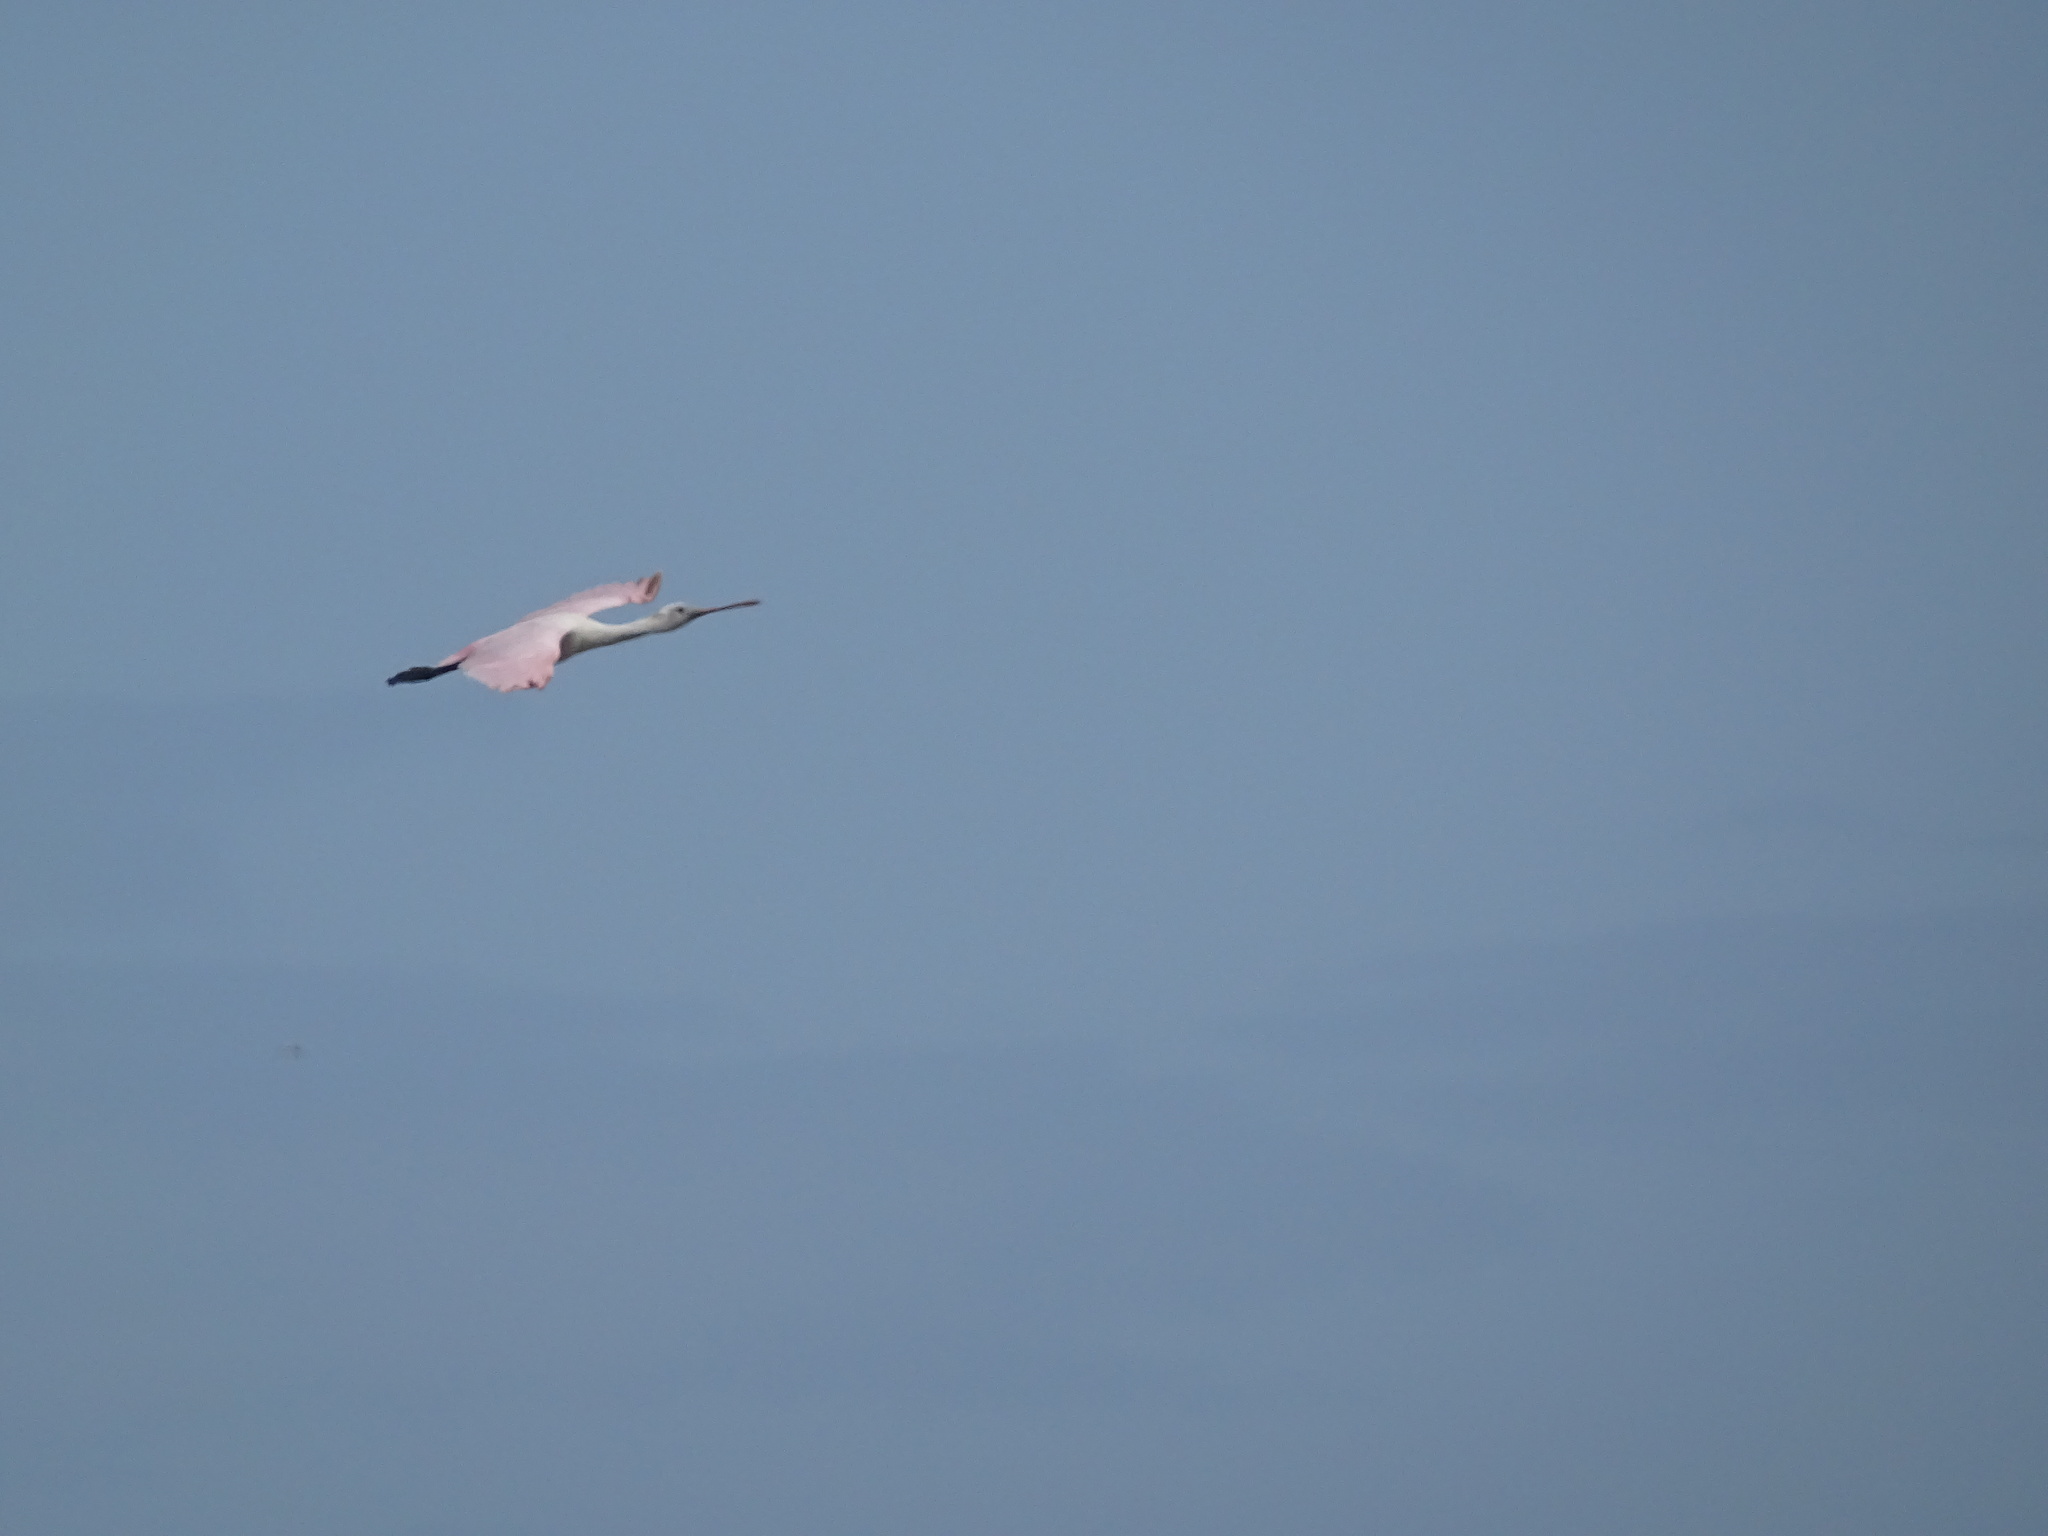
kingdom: Animalia
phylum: Chordata
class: Aves
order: Pelecaniformes
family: Threskiornithidae
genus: Platalea
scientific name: Platalea ajaja
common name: Roseate spoonbill
